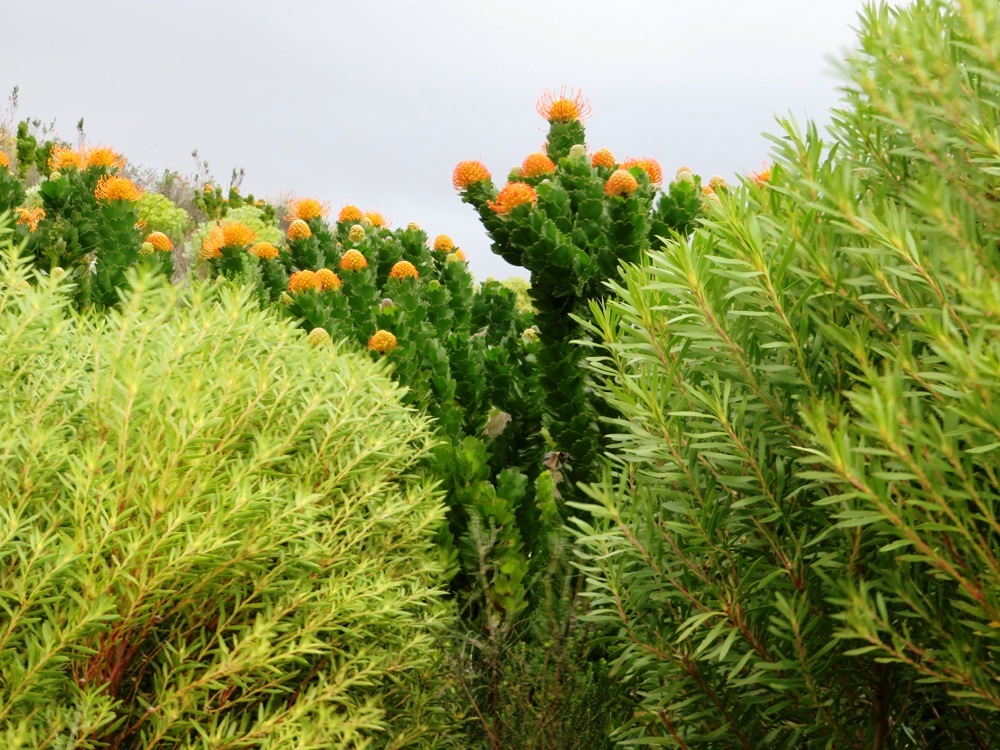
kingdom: Plantae
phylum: Tracheophyta
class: Magnoliopsida
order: Proteales
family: Proteaceae
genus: Leucospermum
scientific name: Leucospermum patersonii
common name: False tree pincushion
